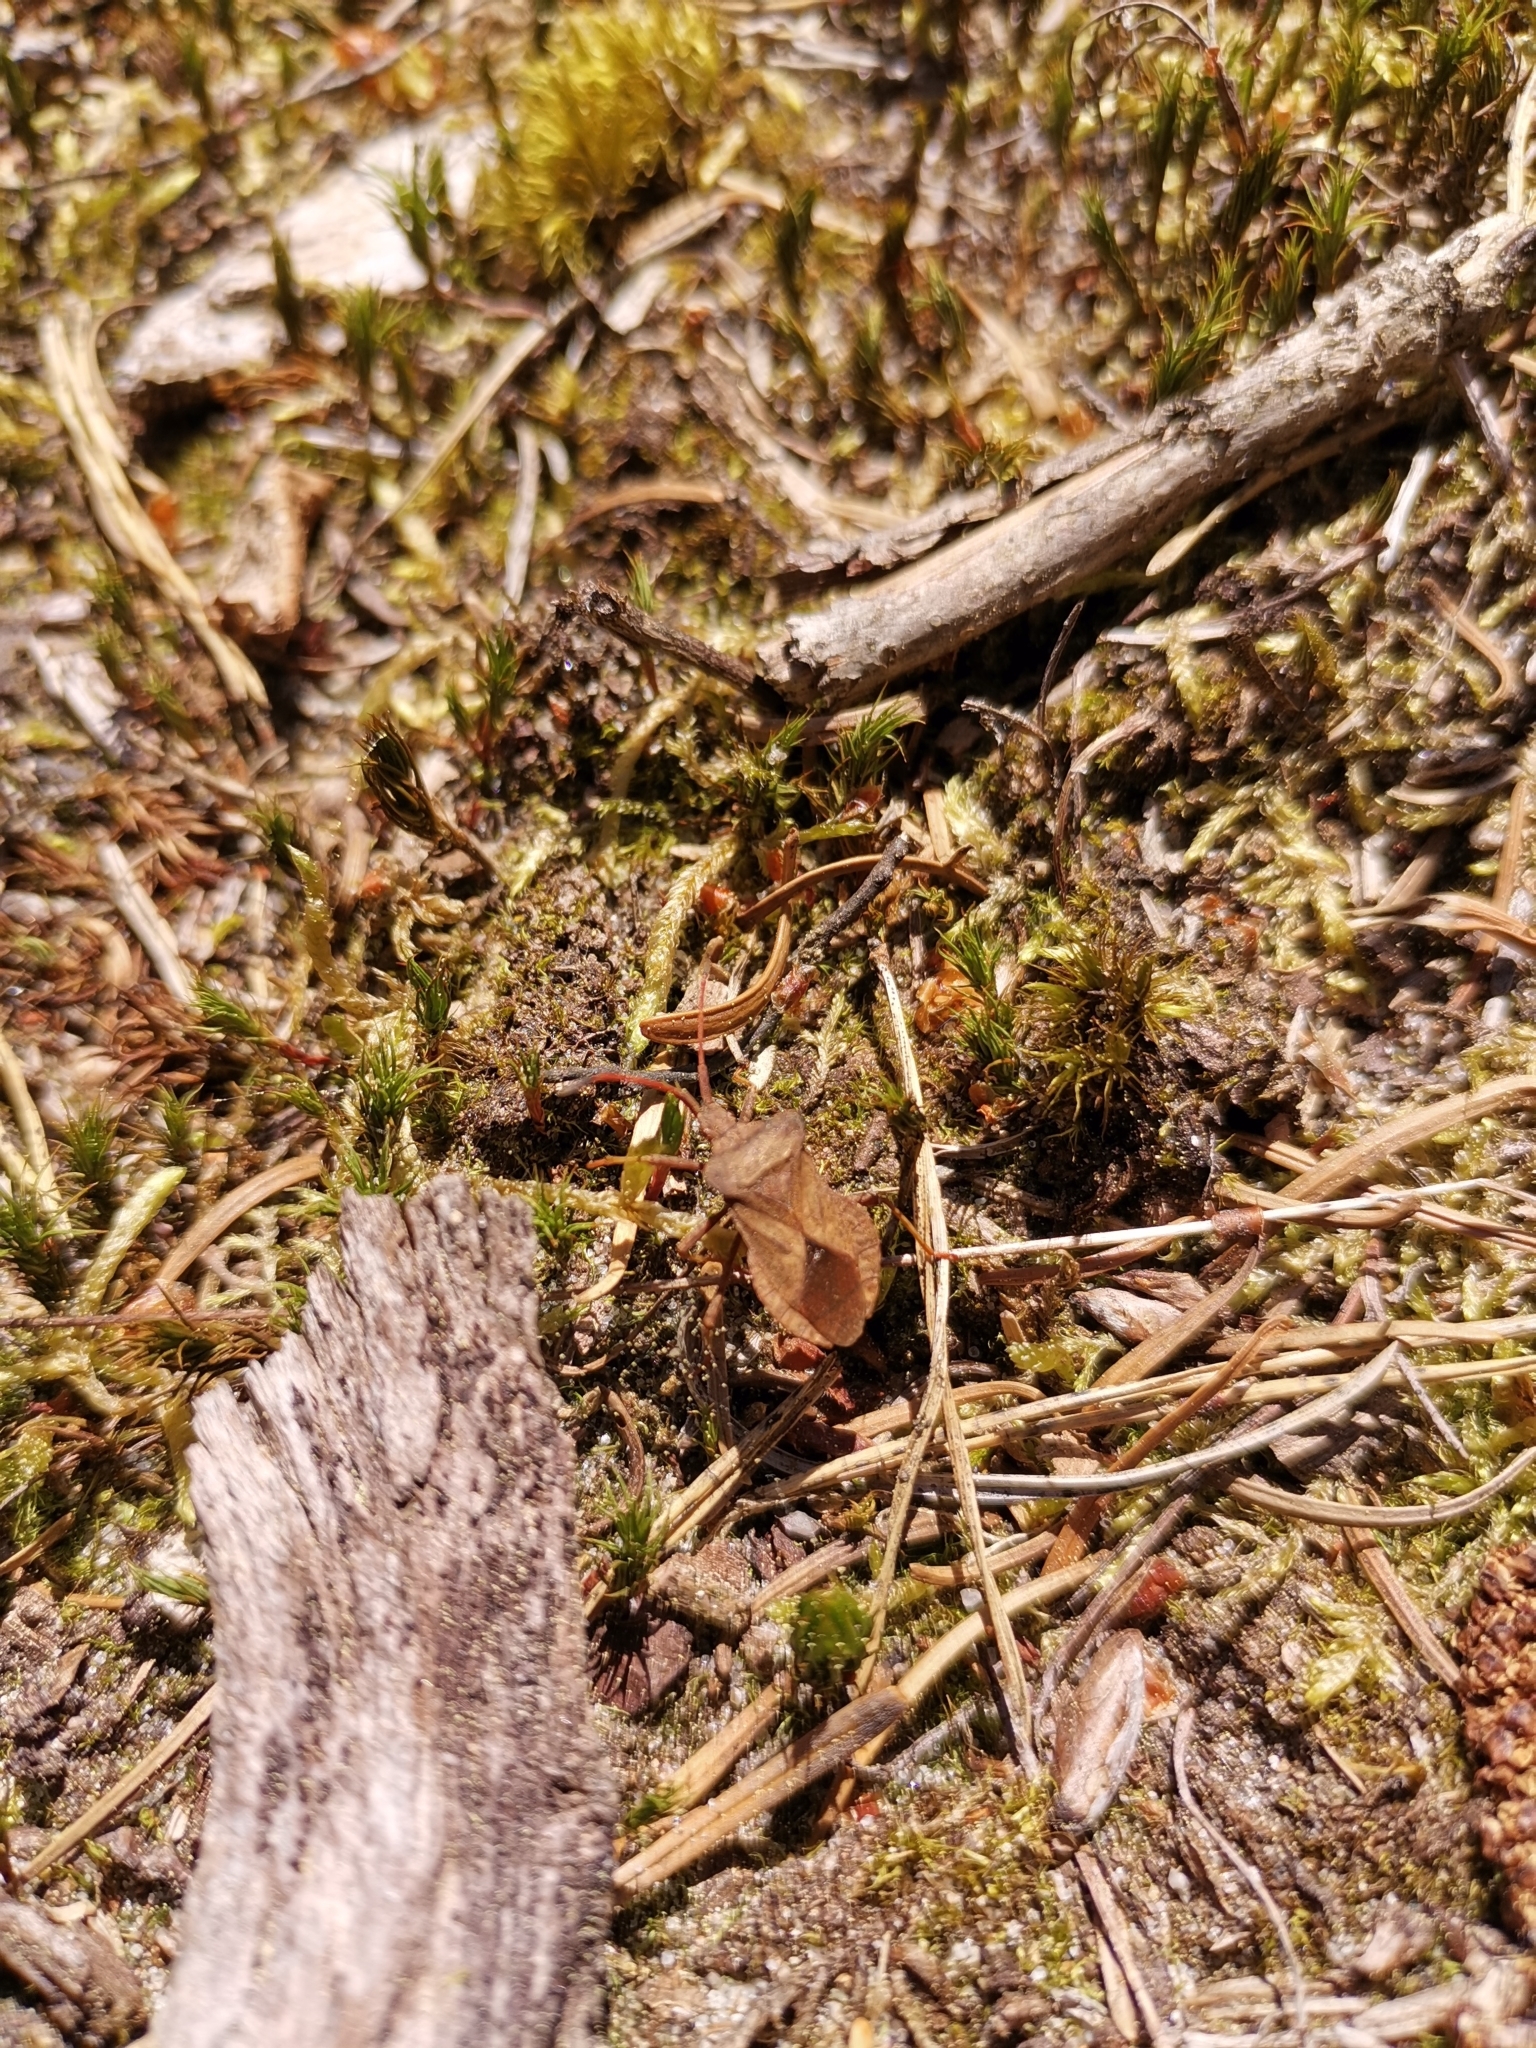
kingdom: Animalia
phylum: Arthropoda
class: Insecta
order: Hemiptera
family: Coreidae
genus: Coreus
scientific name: Coreus marginatus
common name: Dock bug
